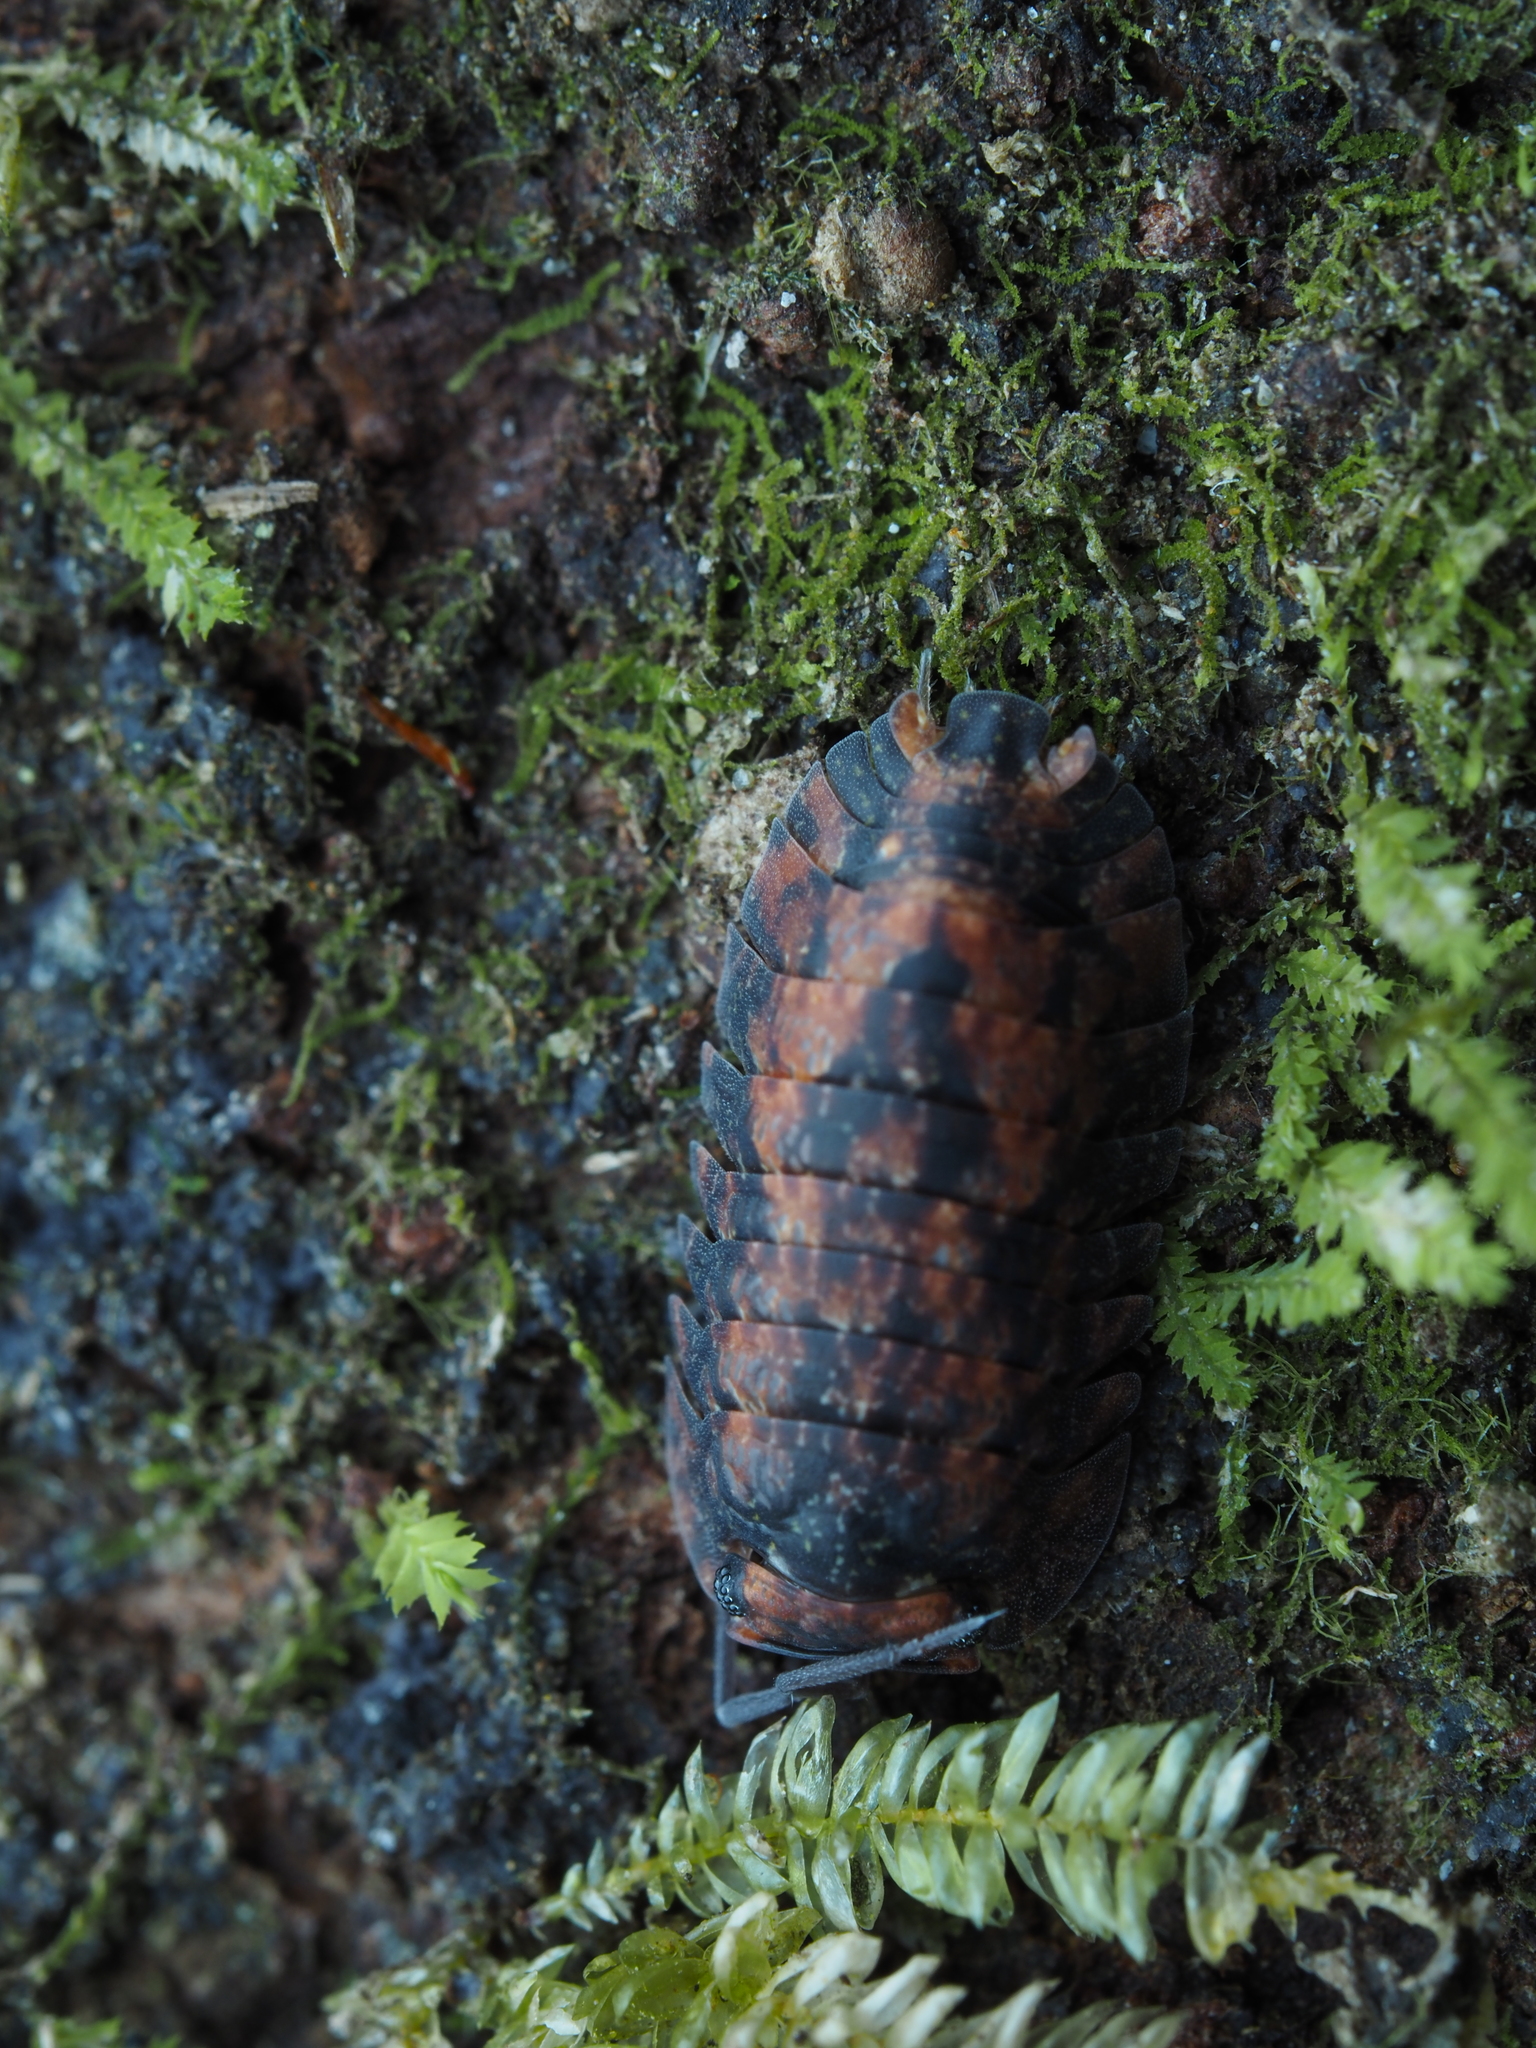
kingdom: Animalia
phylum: Arthropoda
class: Malacostraca
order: Isopoda
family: Armadillidae
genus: Cubaris
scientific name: Cubaris tarangensis
